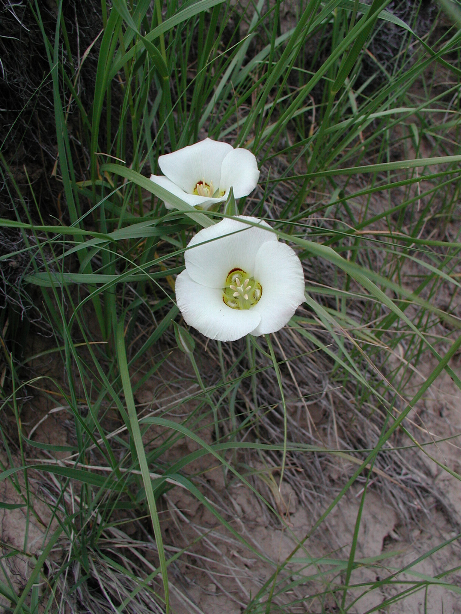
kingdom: Plantae
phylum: Tracheophyta
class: Liliopsida
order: Liliales
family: Liliaceae
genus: Calochortus
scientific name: Calochortus nuttallii
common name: Sego-lily
